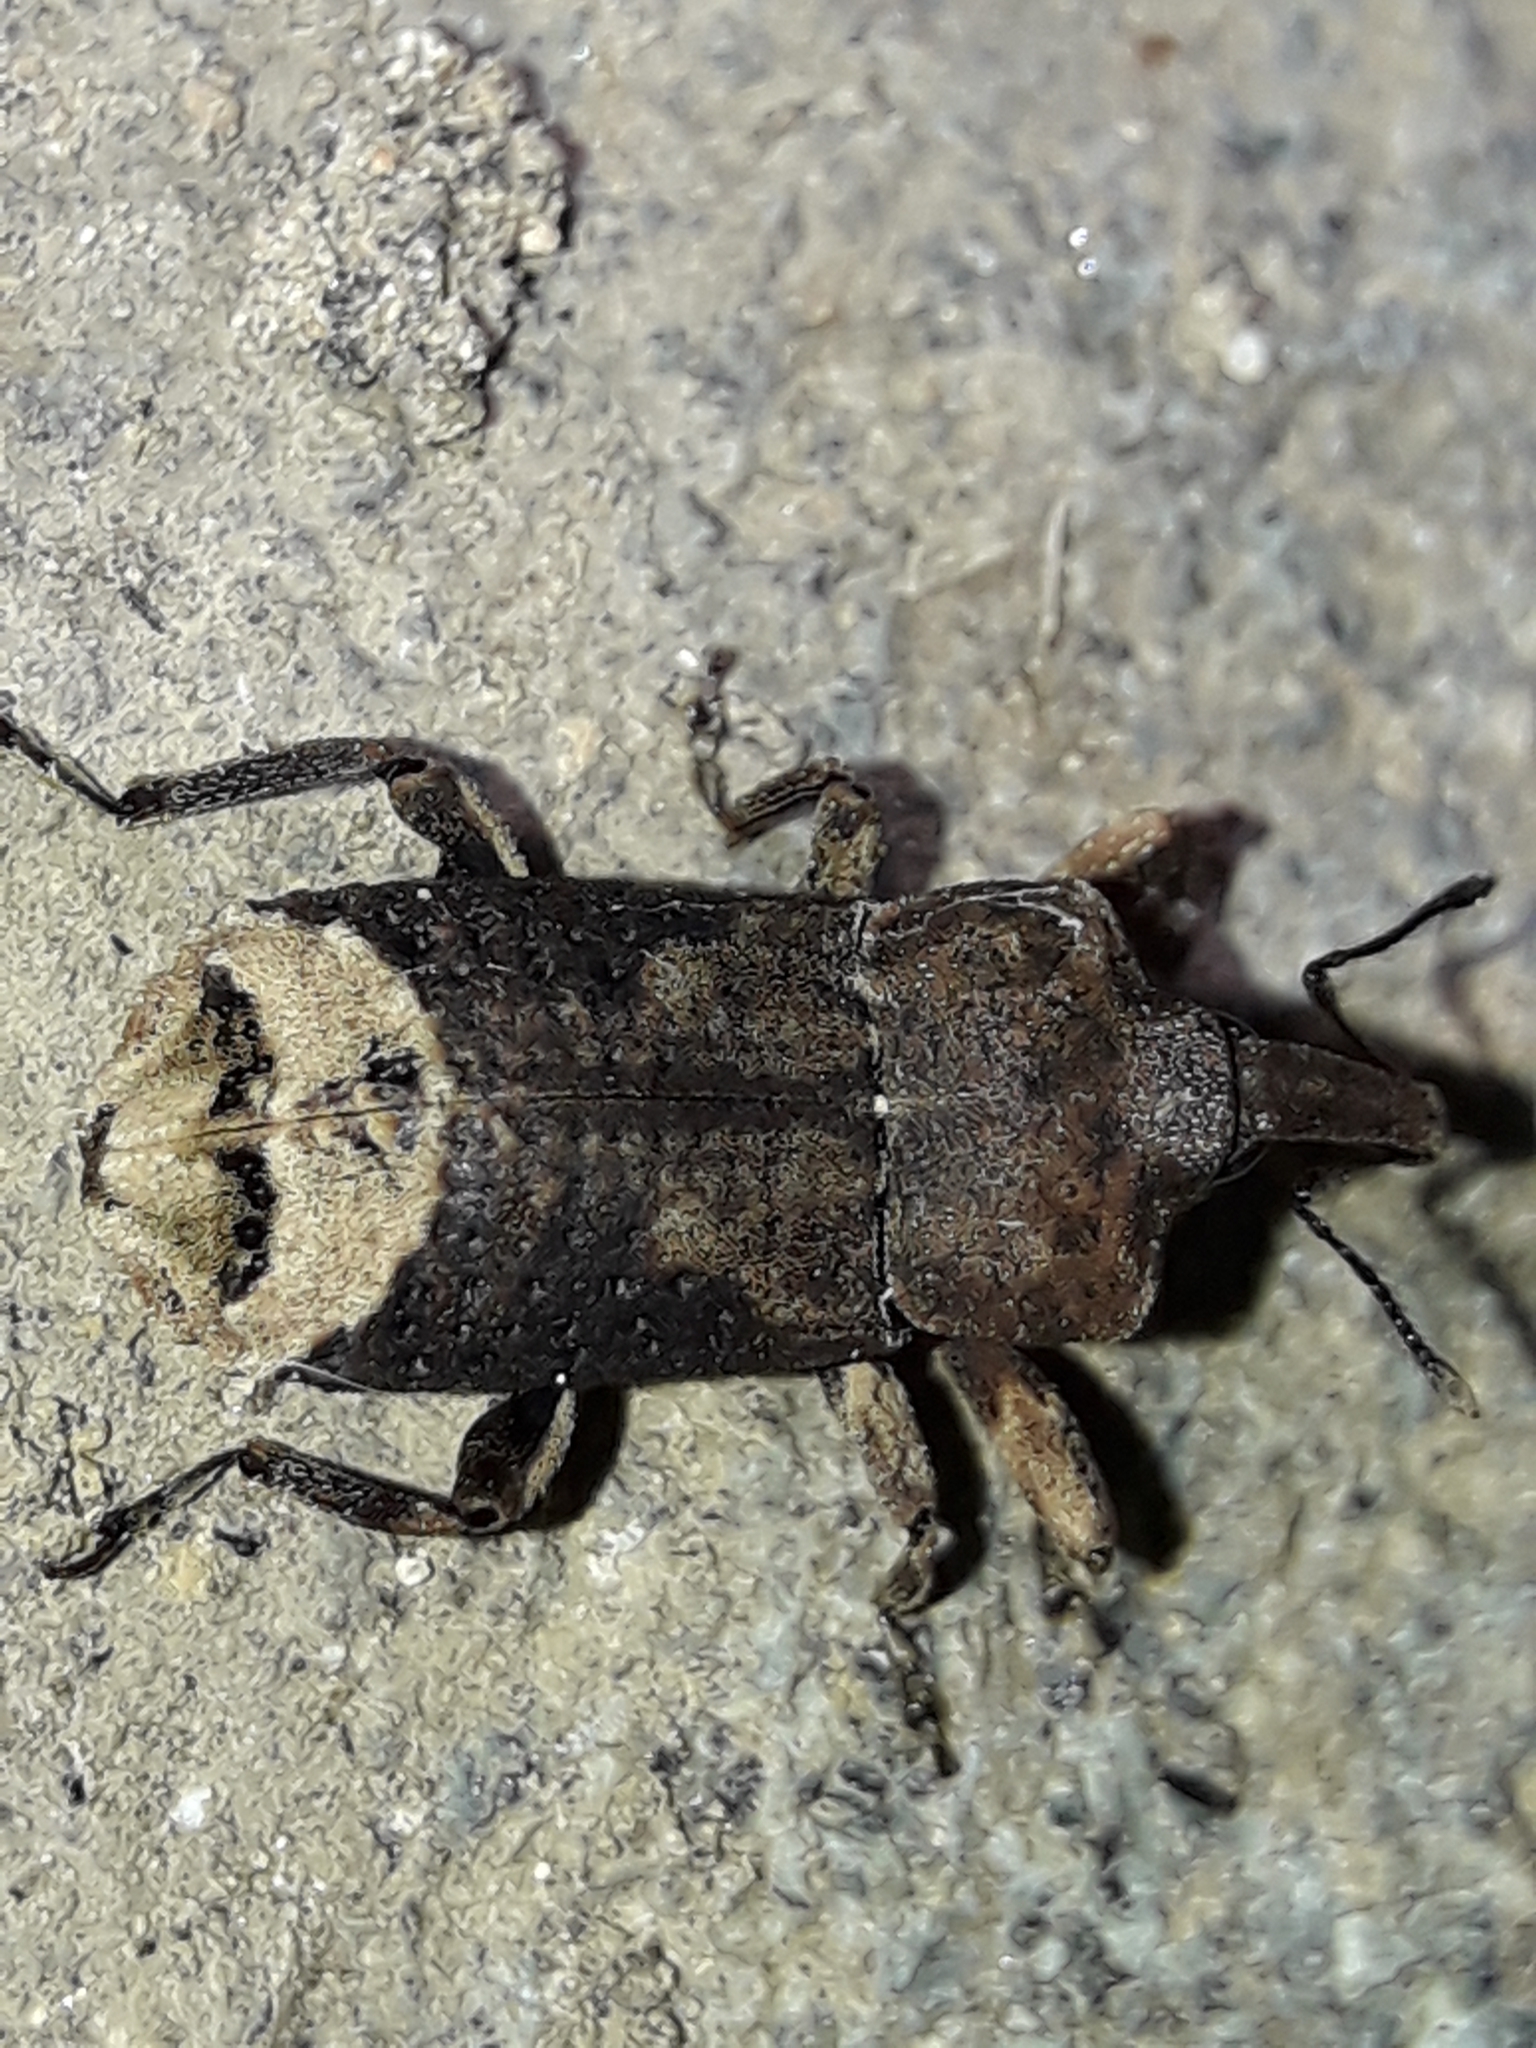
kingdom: Animalia
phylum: Arthropoda
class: Insecta
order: Coleoptera
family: Curculionidae
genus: Ectopsis
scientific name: Ectopsis ferrugalis
